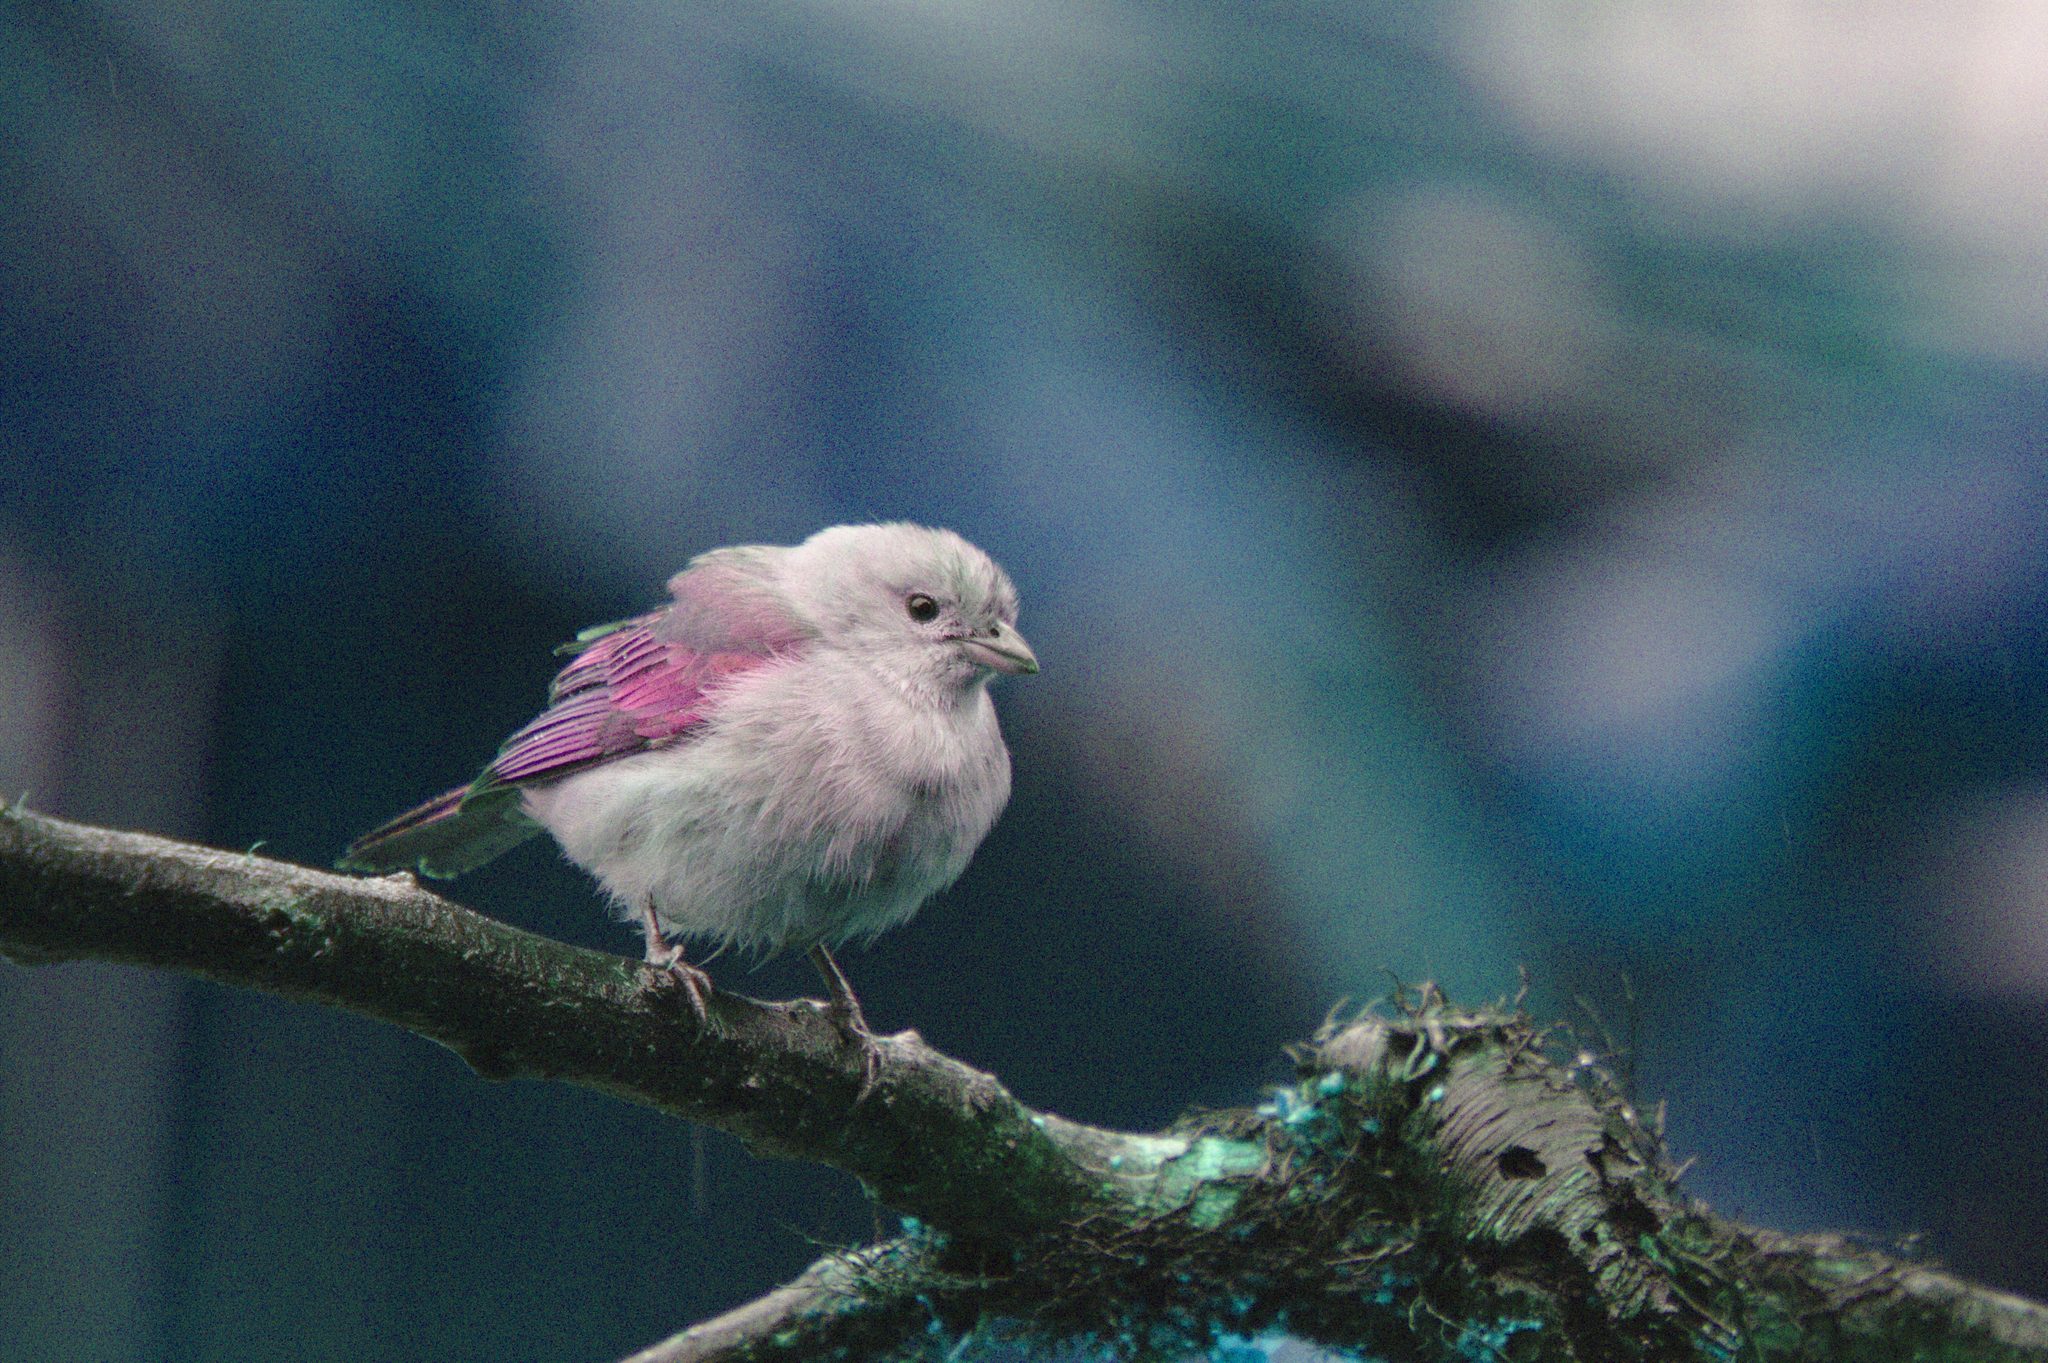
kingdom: Animalia
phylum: Chordata
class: Aves
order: Passeriformes
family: Thraupidae
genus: Thraupis
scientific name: Thraupis episcopus
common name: Blue-grey tanager
